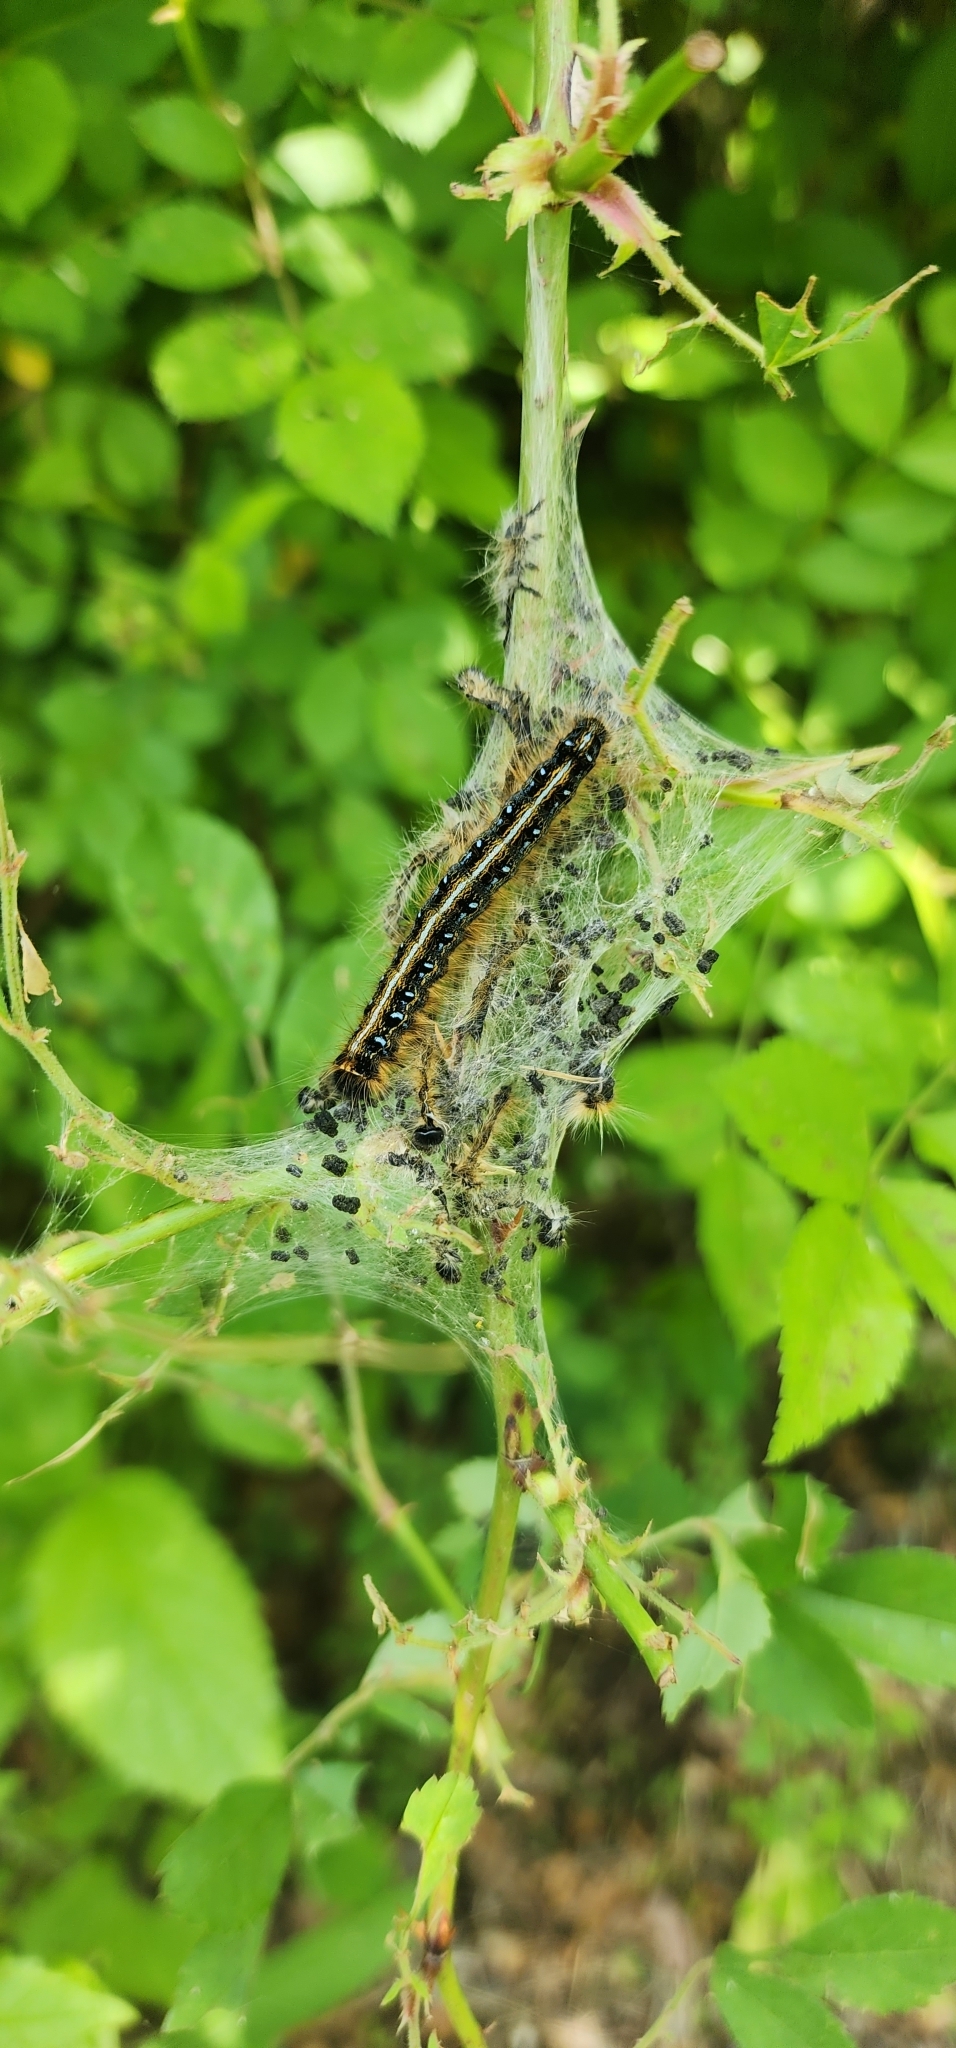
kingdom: Animalia
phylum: Arthropoda
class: Insecta
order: Lepidoptera
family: Lasiocampidae
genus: Malacosoma
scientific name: Malacosoma americana
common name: Eastern tent caterpillar moth
